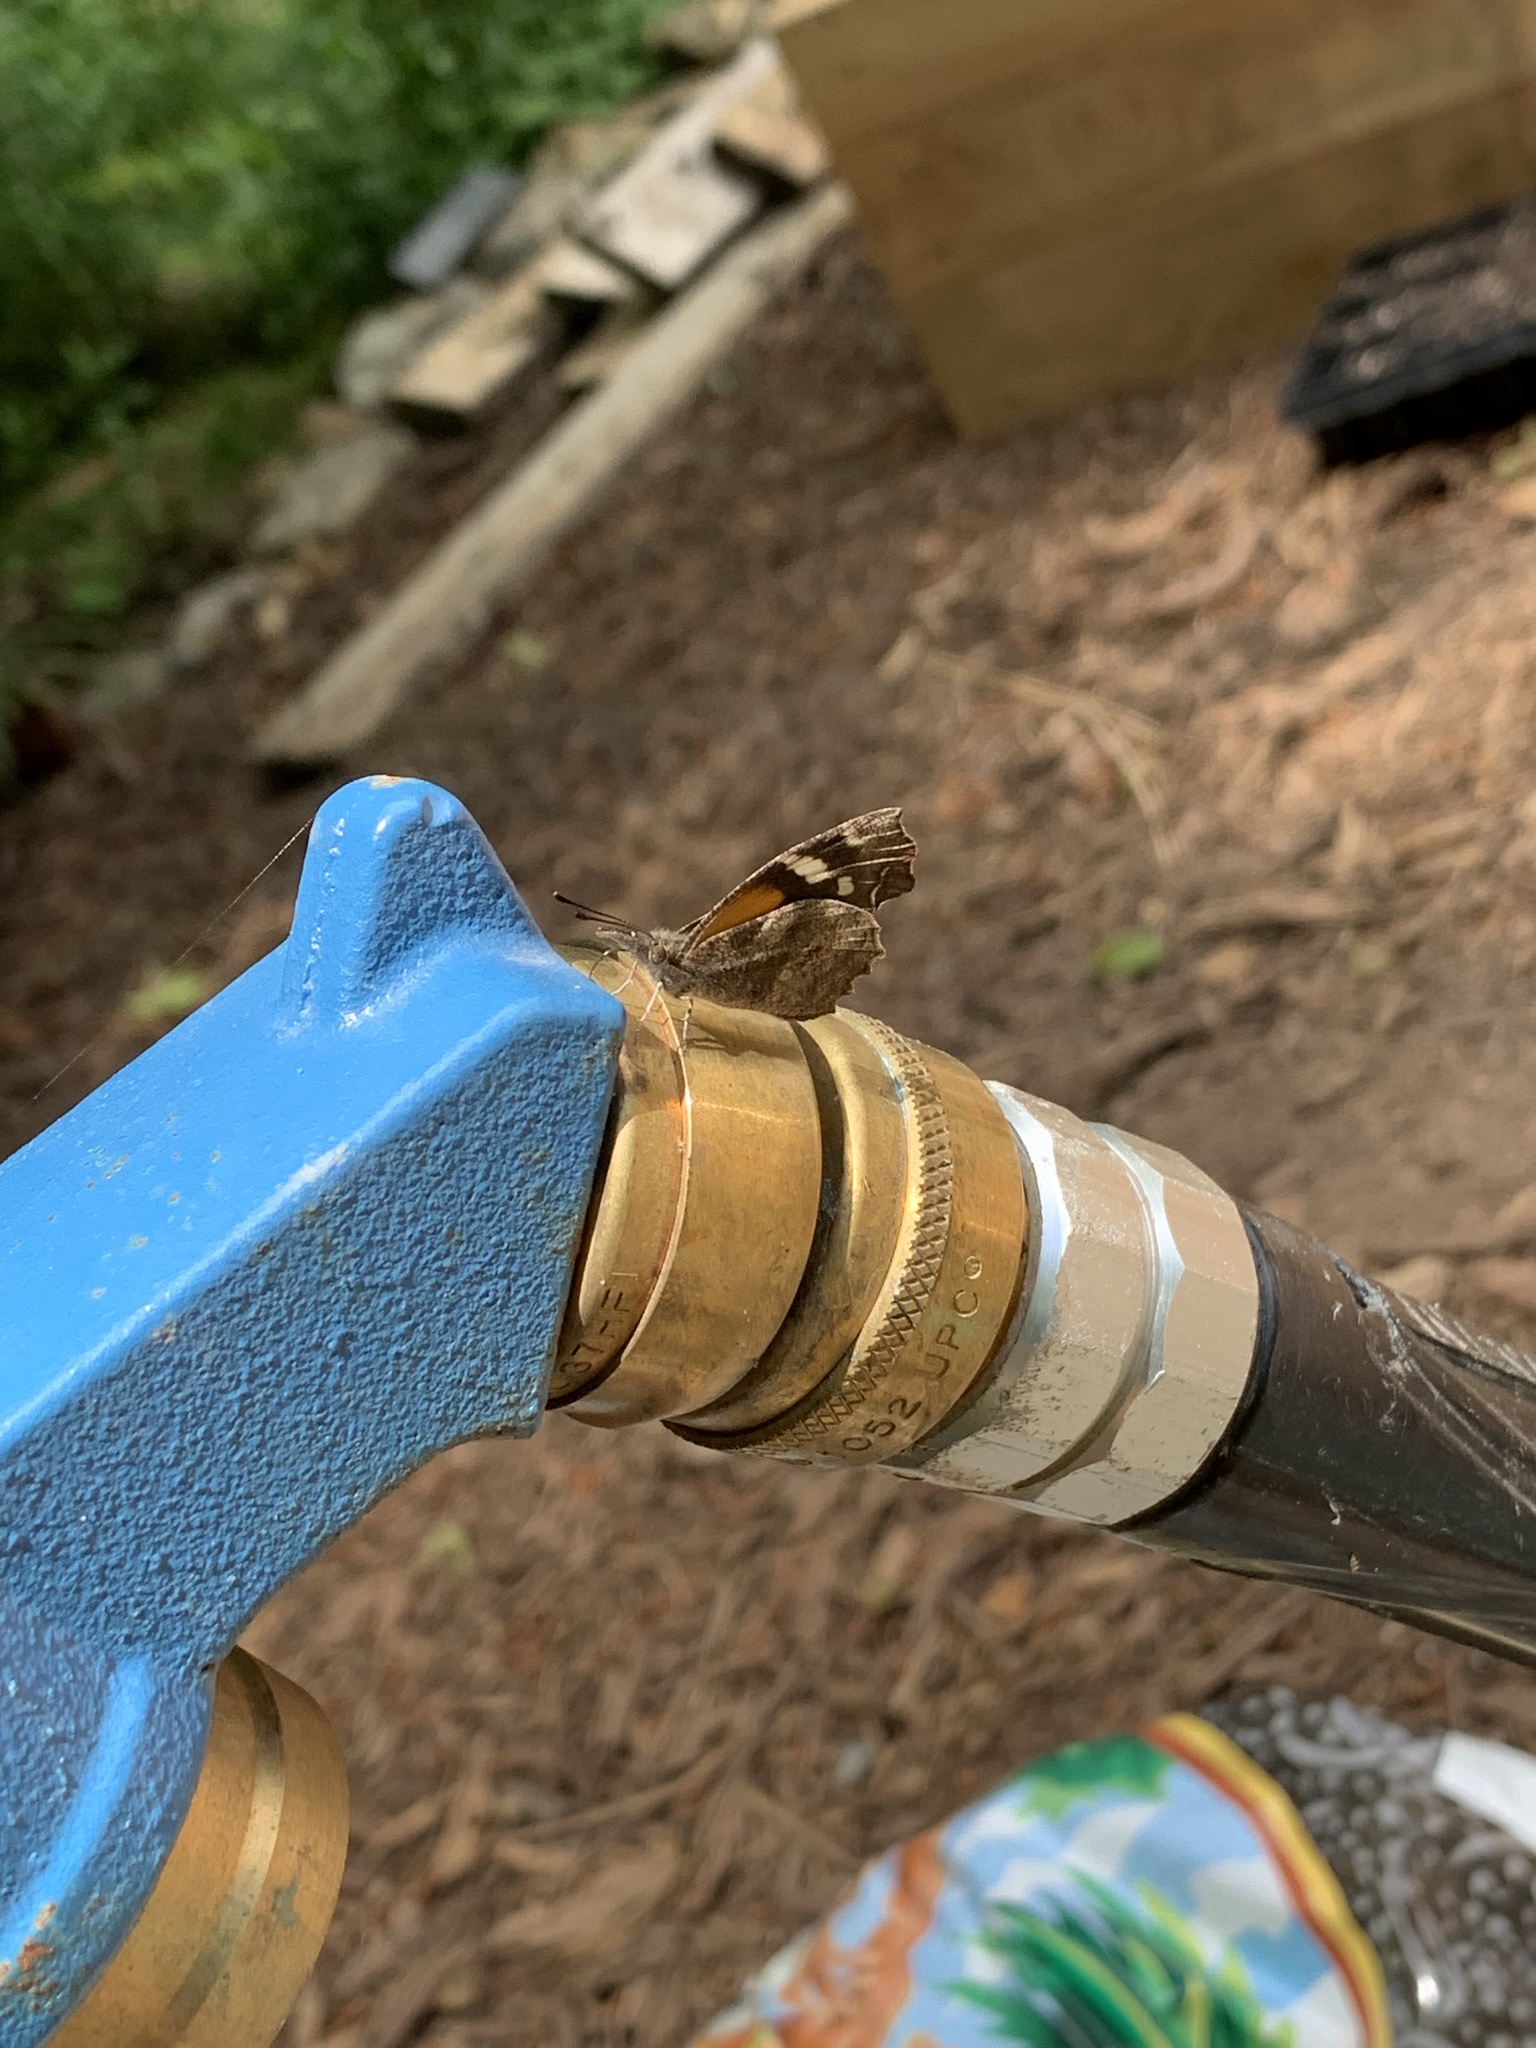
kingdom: Animalia
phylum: Arthropoda
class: Insecta
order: Lepidoptera
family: Nymphalidae
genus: Libytheana
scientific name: Libytheana carinenta
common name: American snout
